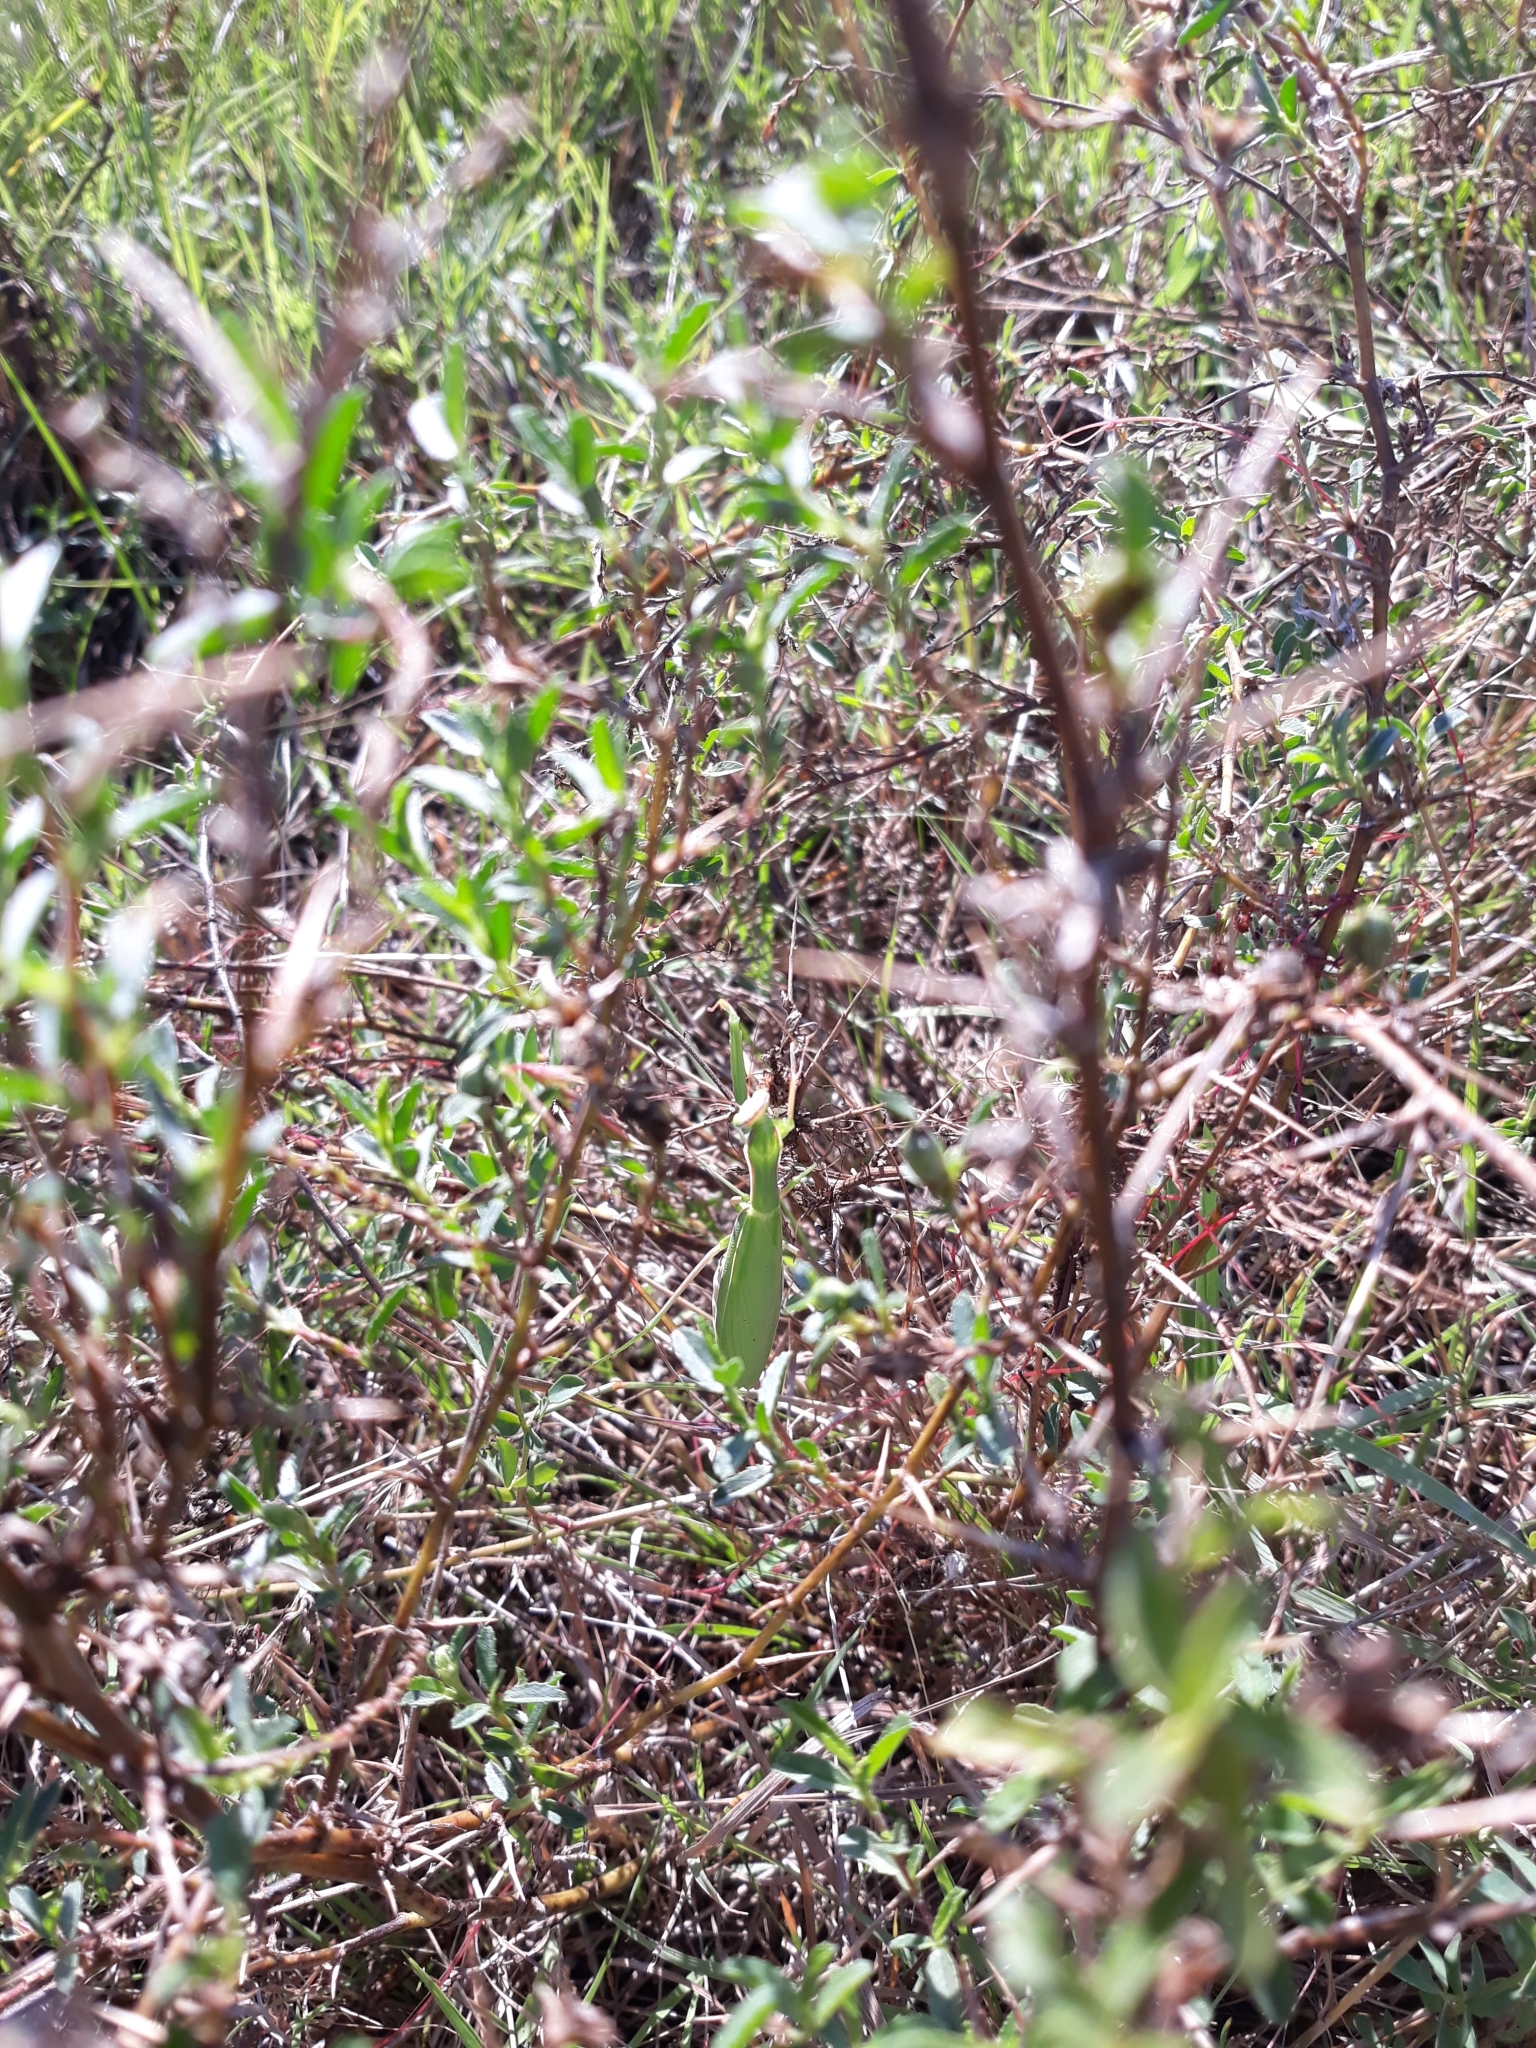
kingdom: Animalia
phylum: Arthropoda
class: Insecta
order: Mantodea
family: Mantidae
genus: Mantis
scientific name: Mantis religiosa
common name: Praying mantis
